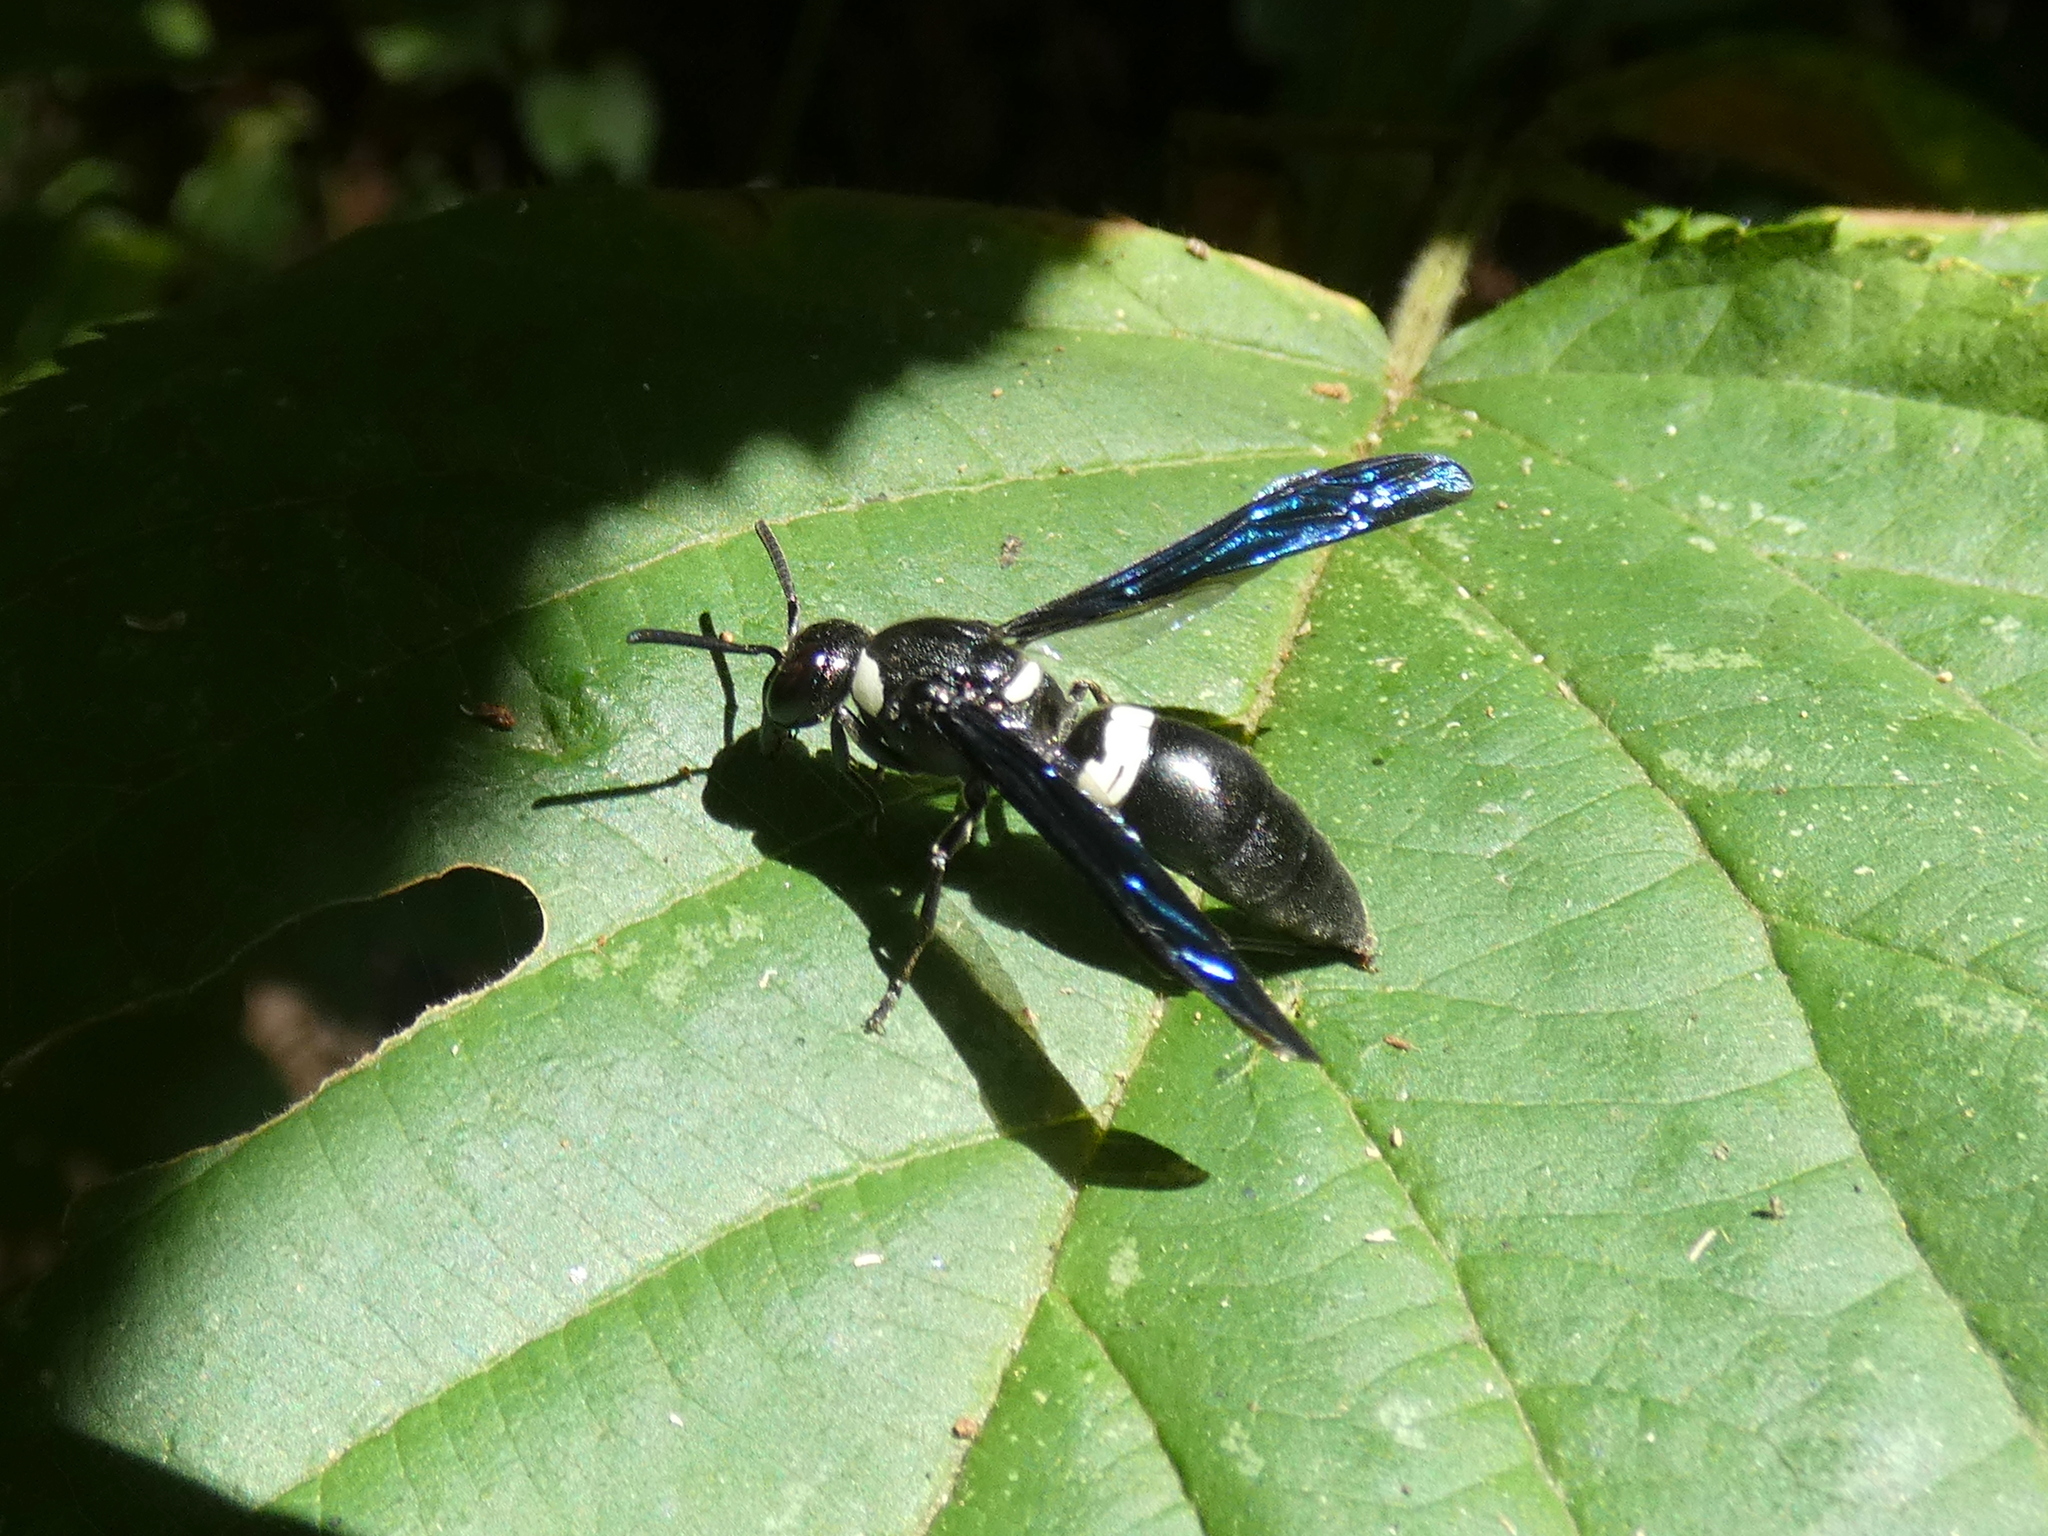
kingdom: Animalia
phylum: Arthropoda
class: Insecta
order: Hymenoptera
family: Eumenidae
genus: Monobia
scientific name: Monobia quadridens
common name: Four-toothed mason wasp
